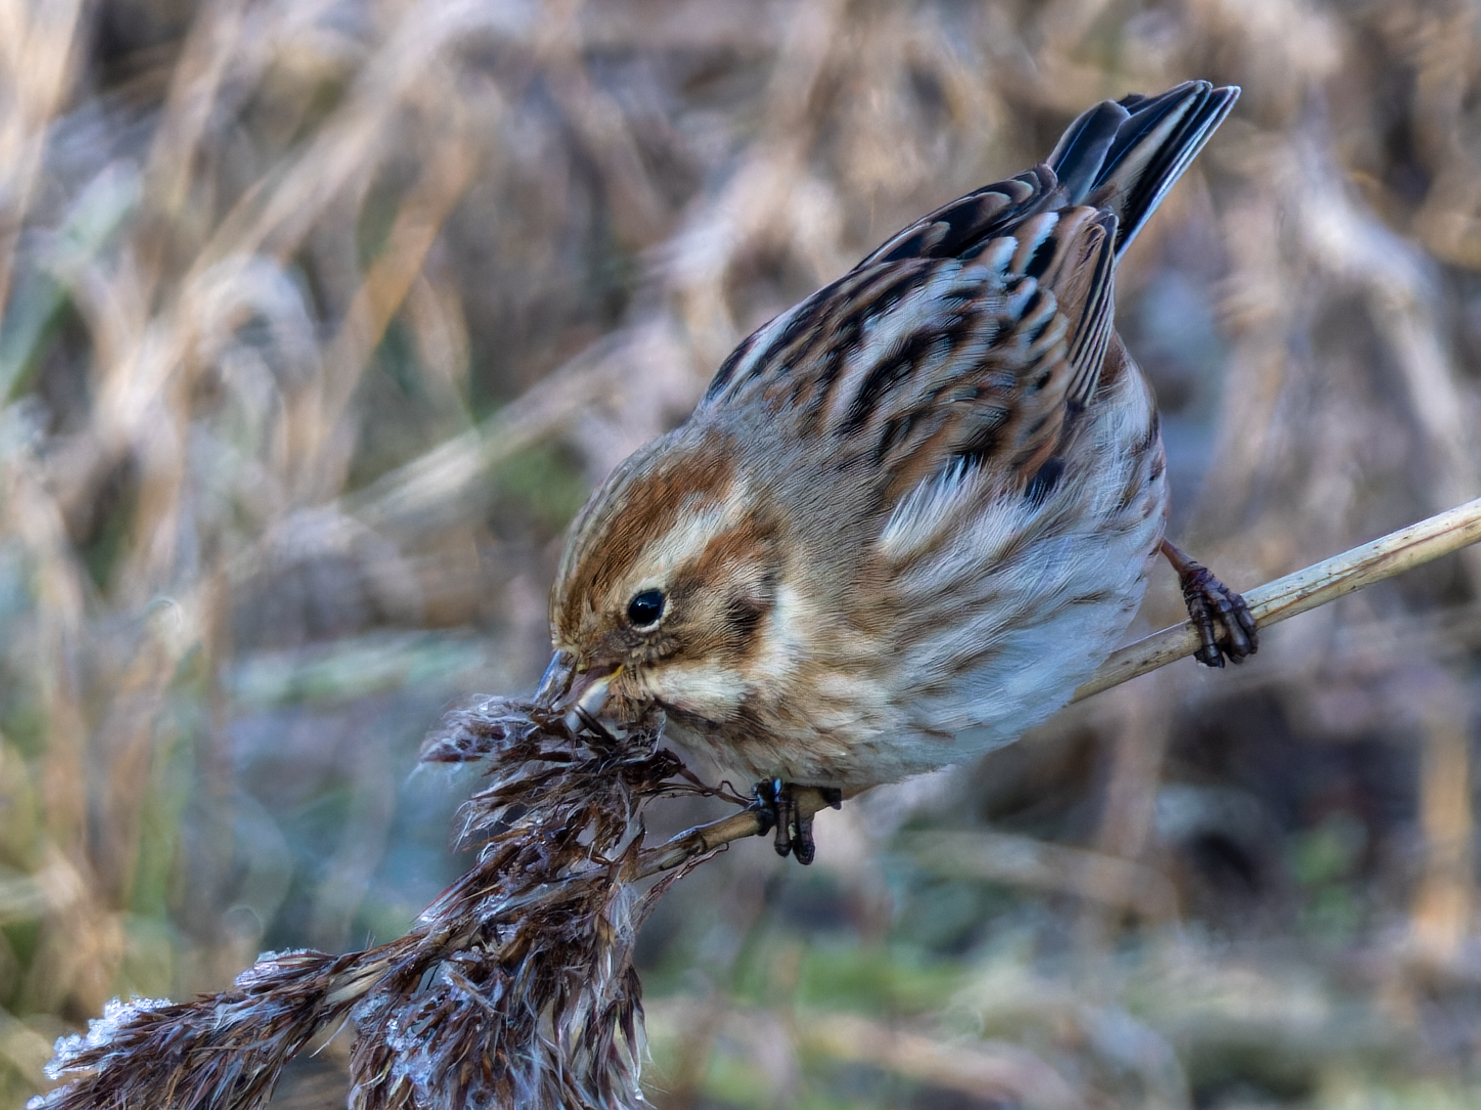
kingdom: Animalia
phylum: Chordata
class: Aves
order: Passeriformes
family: Emberizidae
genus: Emberiza
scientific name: Emberiza schoeniclus
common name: Reed bunting
